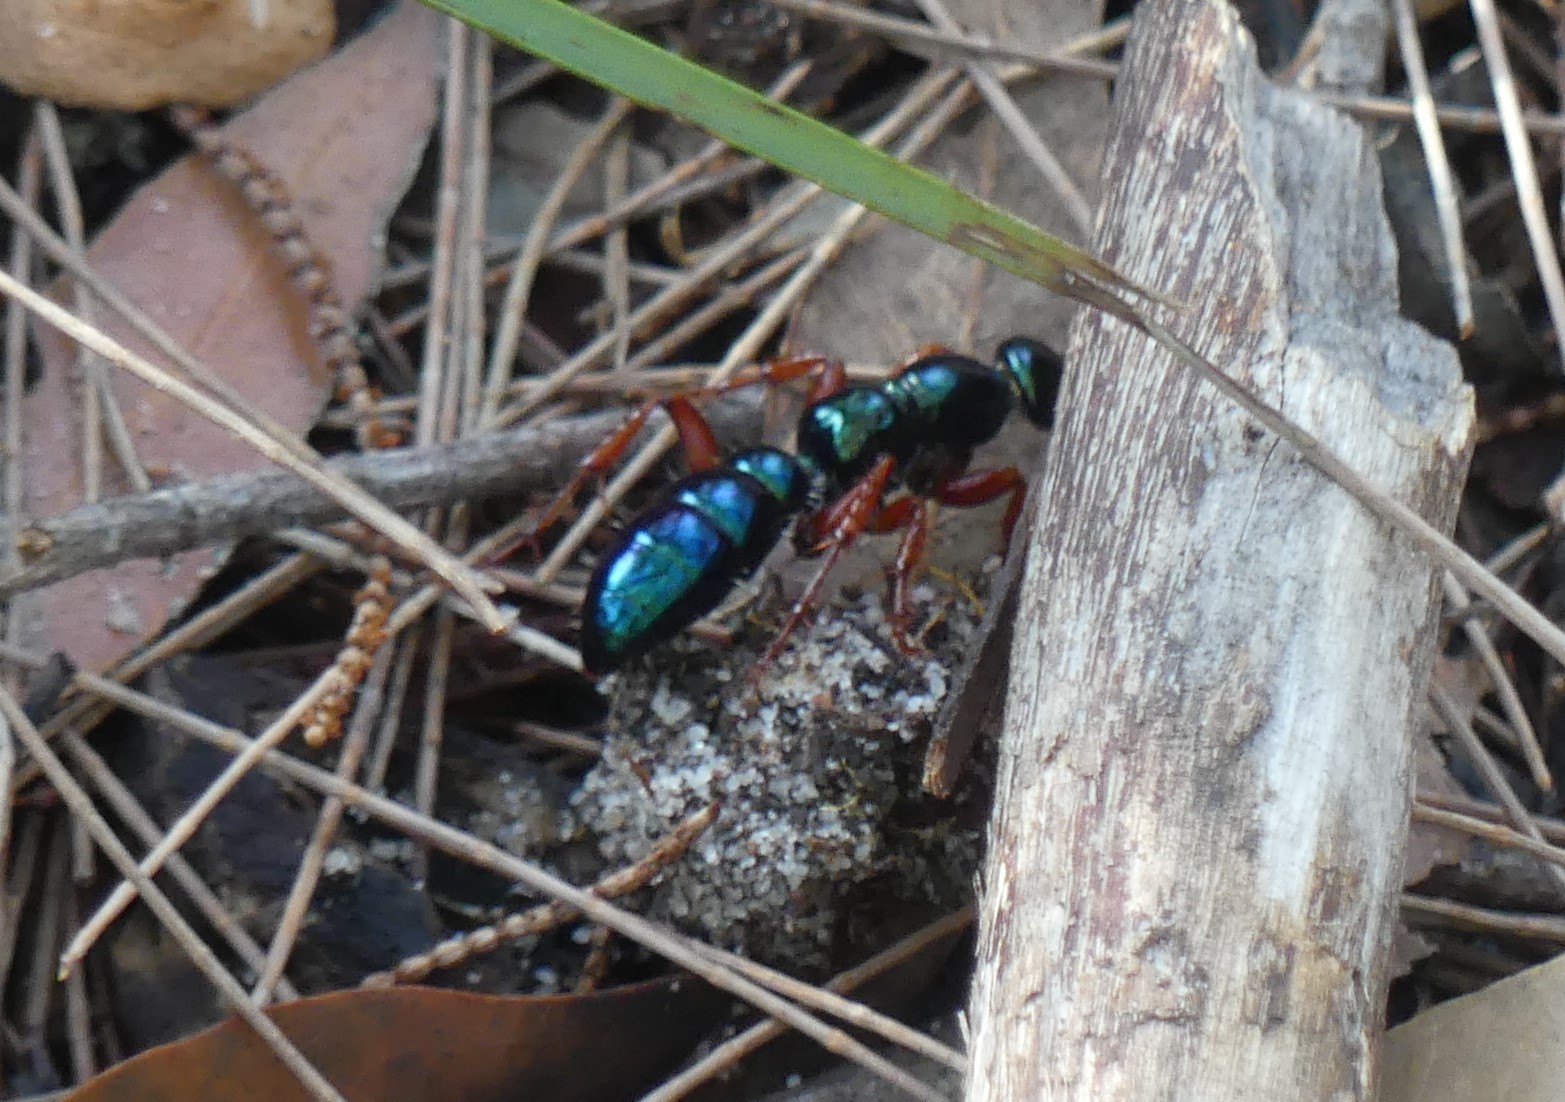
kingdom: Animalia
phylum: Arthropoda
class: Insecta
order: Hymenoptera
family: Tiphiidae
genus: Diamma
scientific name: Diamma
